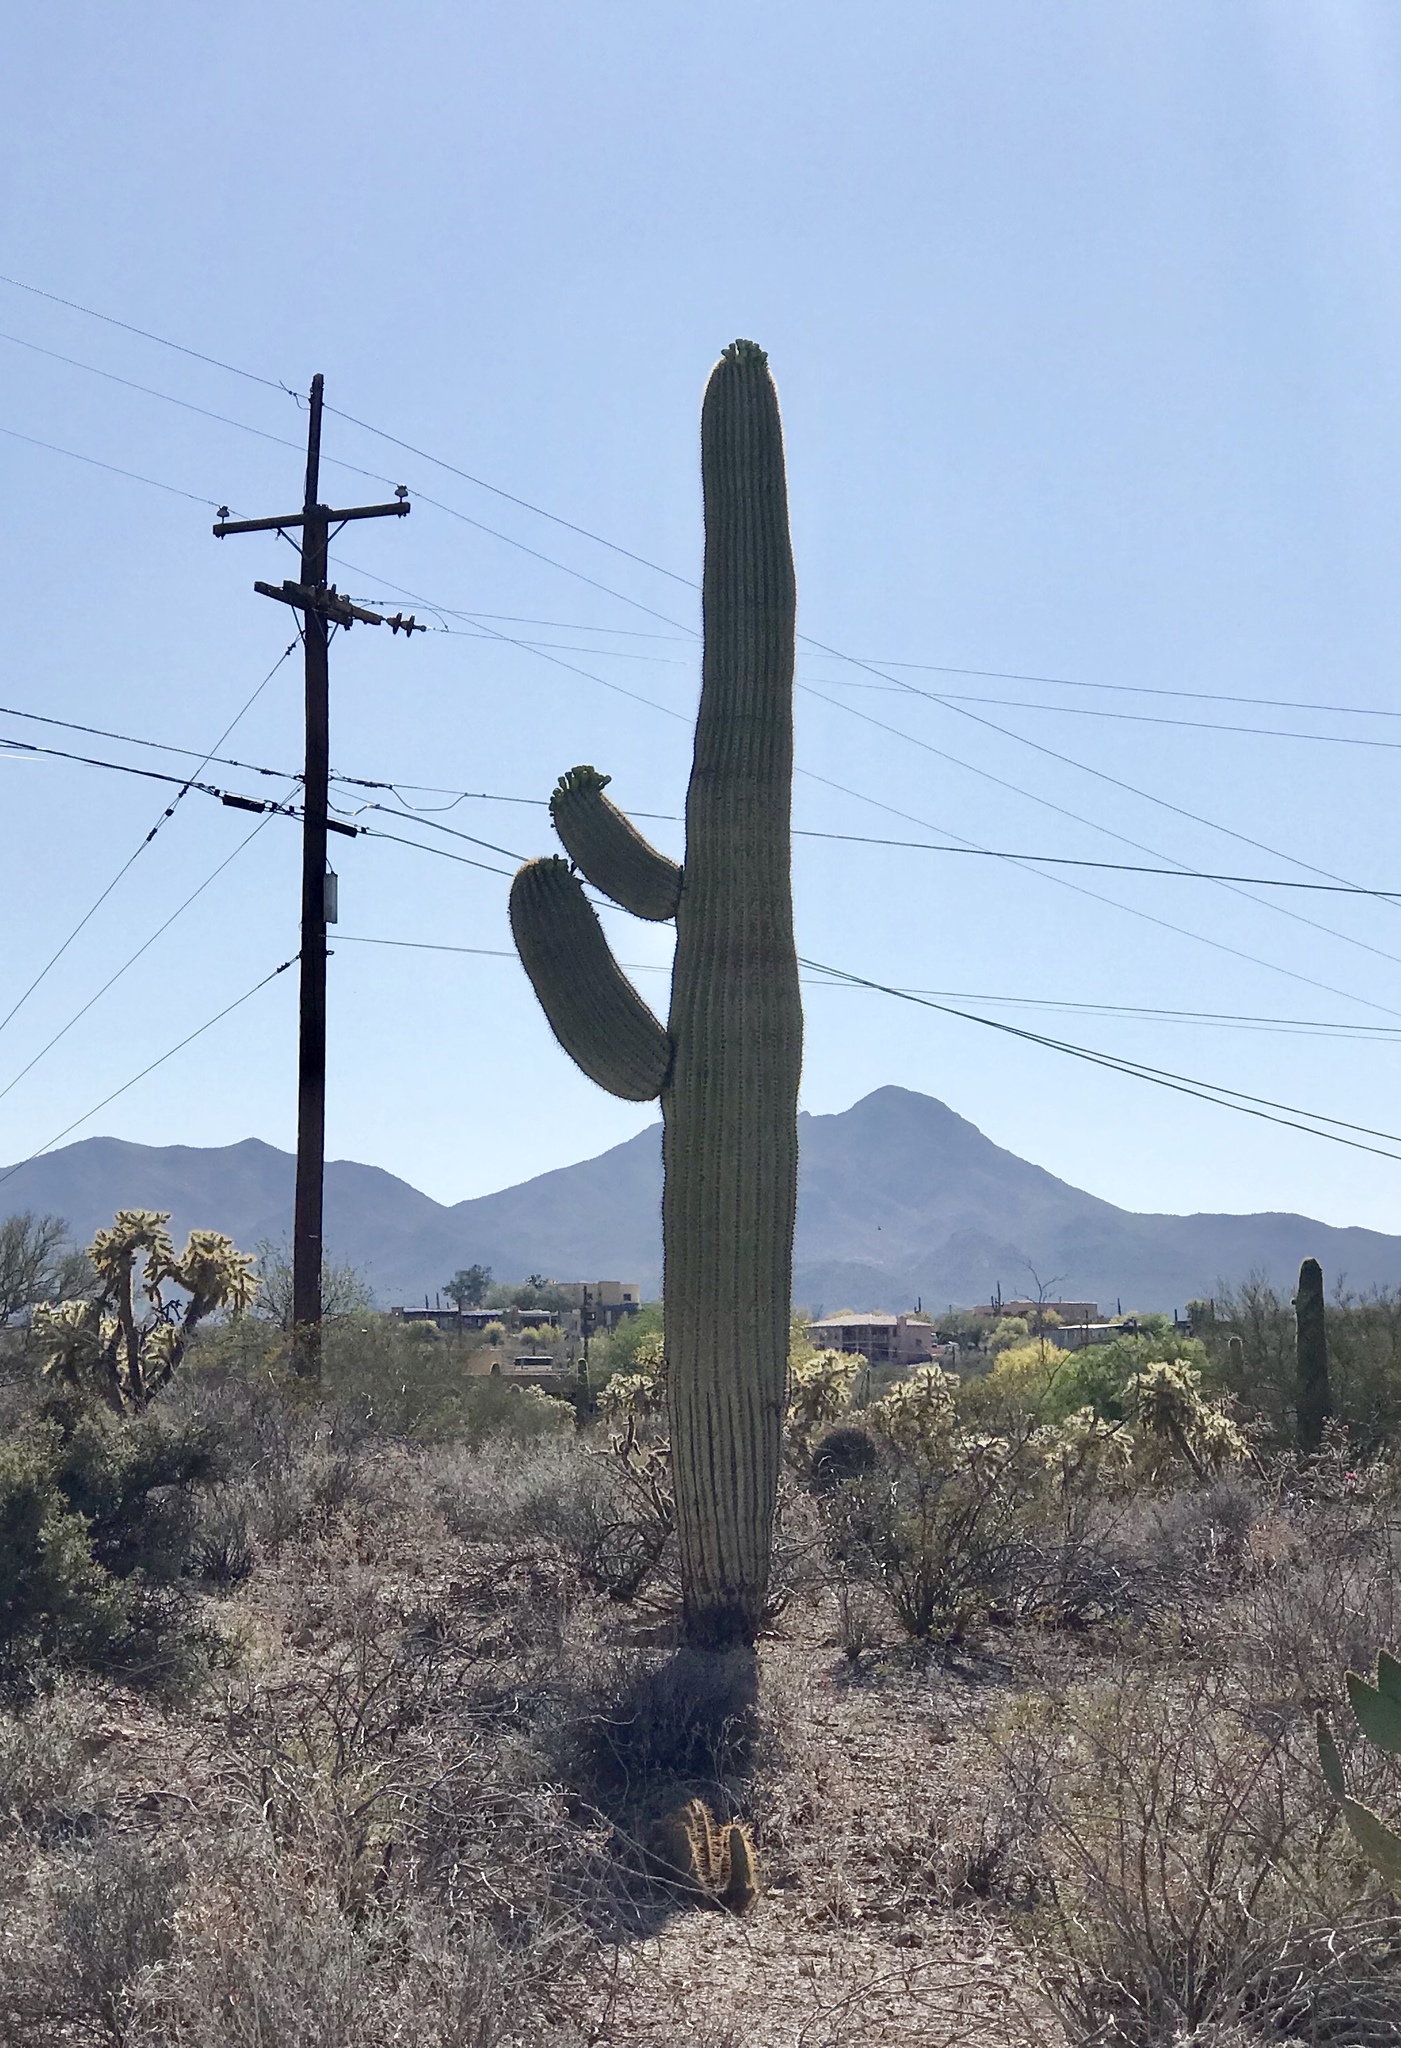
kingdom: Plantae
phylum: Tracheophyta
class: Magnoliopsida
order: Caryophyllales
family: Cactaceae
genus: Carnegiea
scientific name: Carnegiea gigantea
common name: Saguaro
